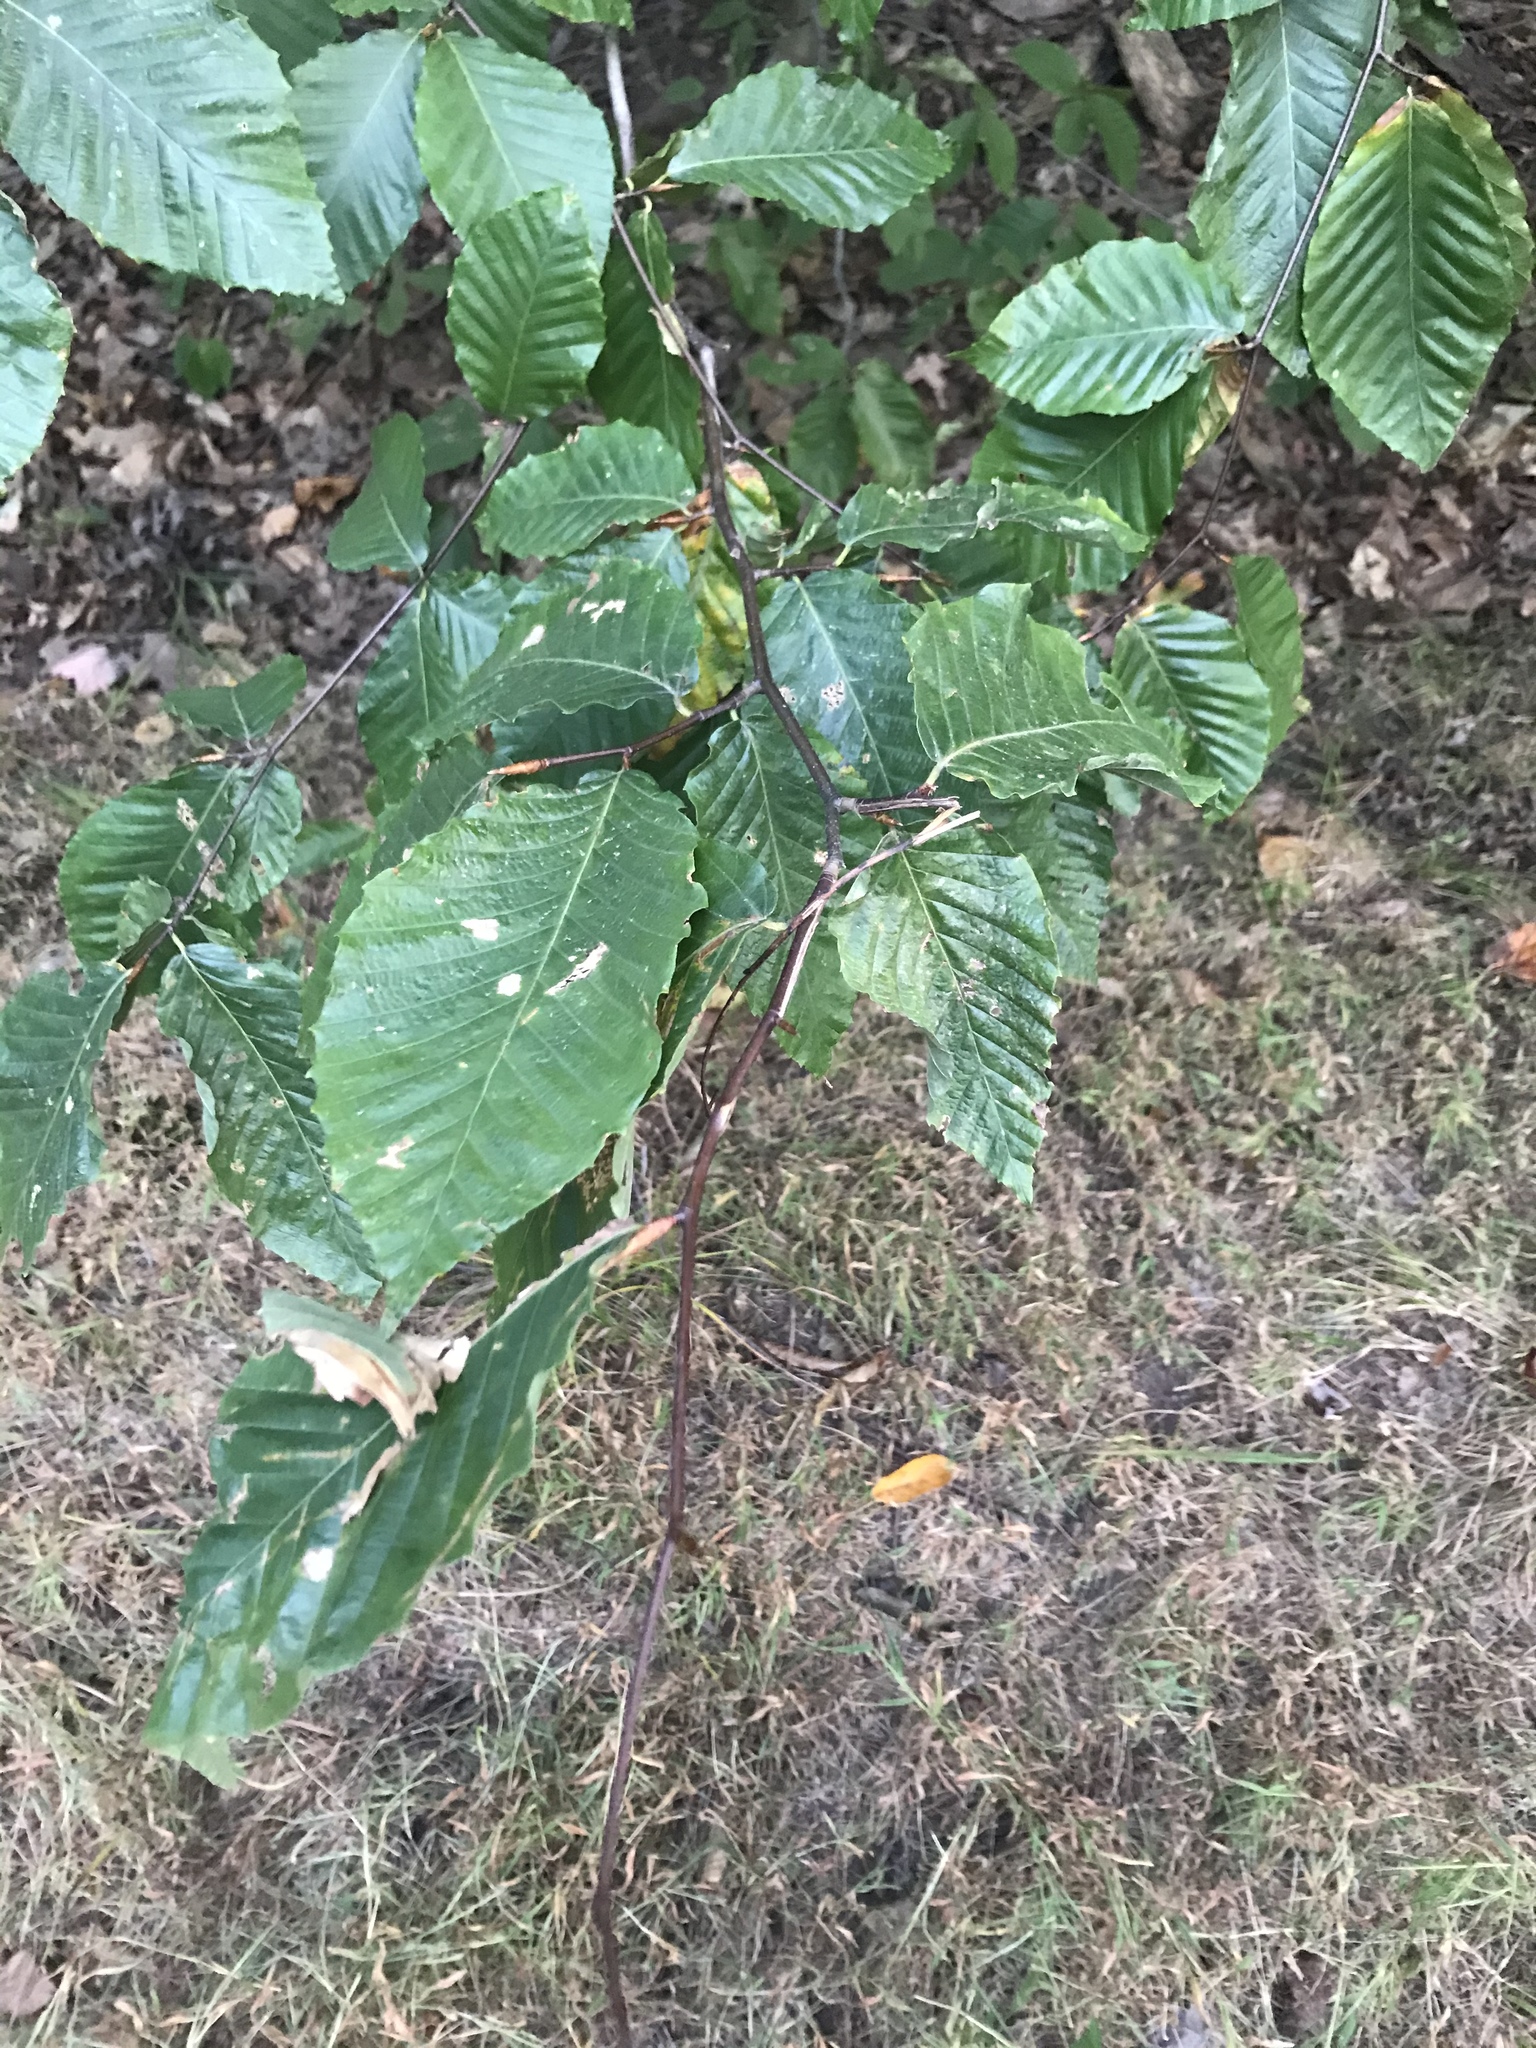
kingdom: Plantae
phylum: Tracheophyta
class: Magnoliopsida
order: Fagales
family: Fagaceae
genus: Fagus
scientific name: Fagus grandifolia
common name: American beech
